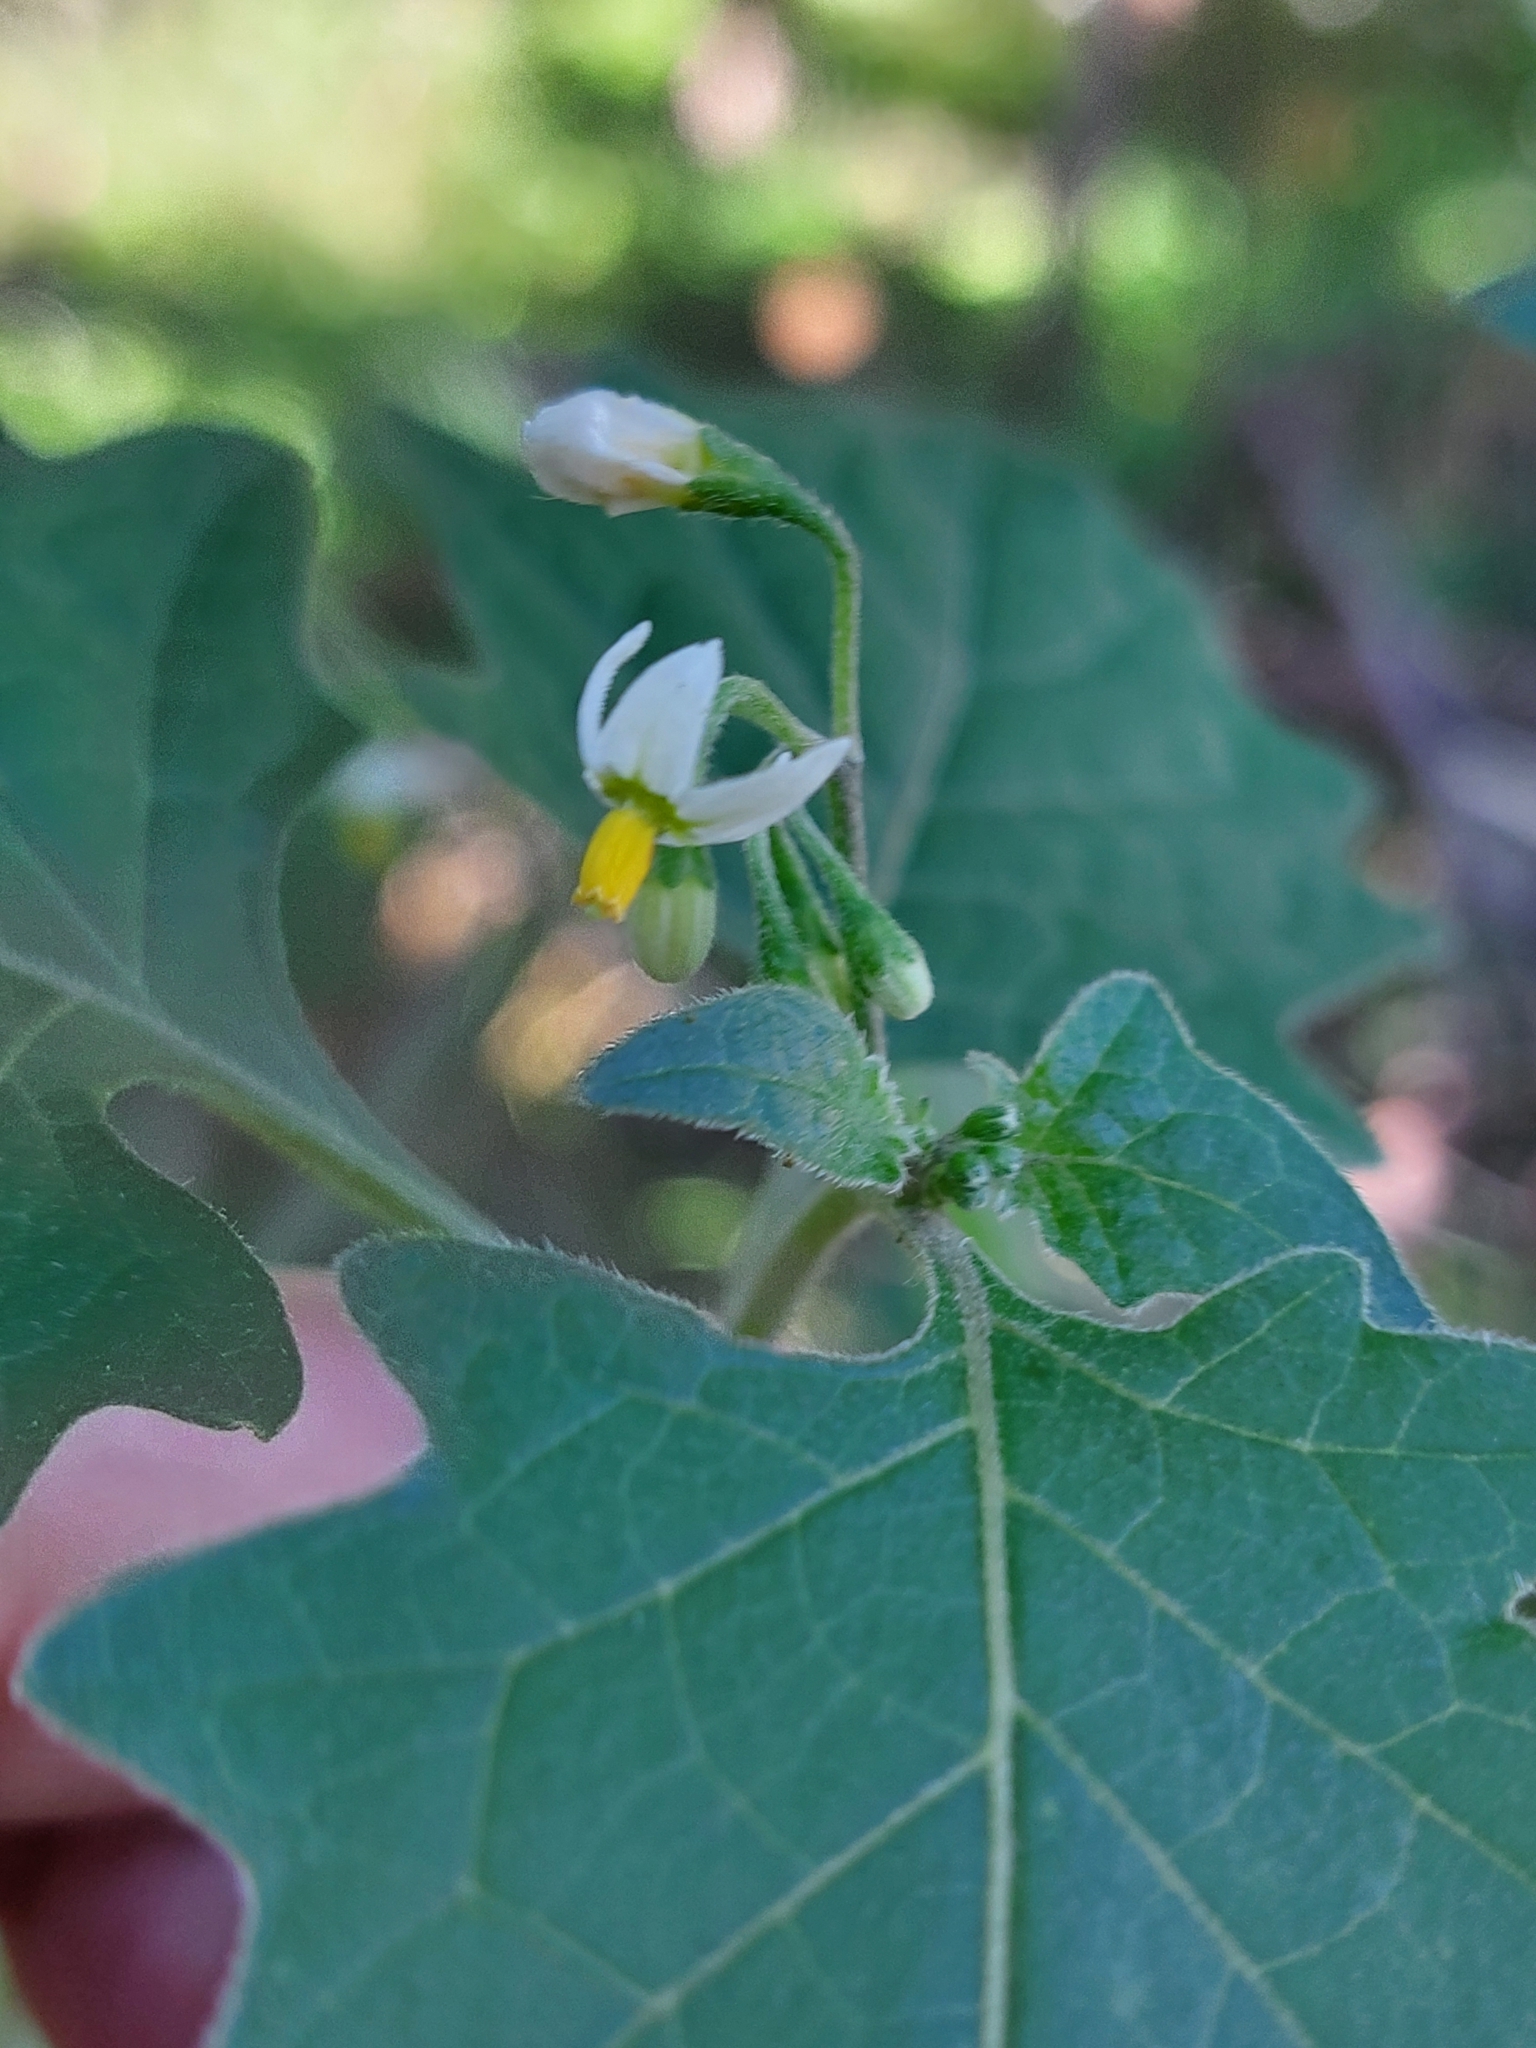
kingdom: Plantae
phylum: Tracheophyta
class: Magnoliopsida
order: Solanales
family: Solanaceae
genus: Solanum
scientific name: Solanum nigrum
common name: Black nightshade
